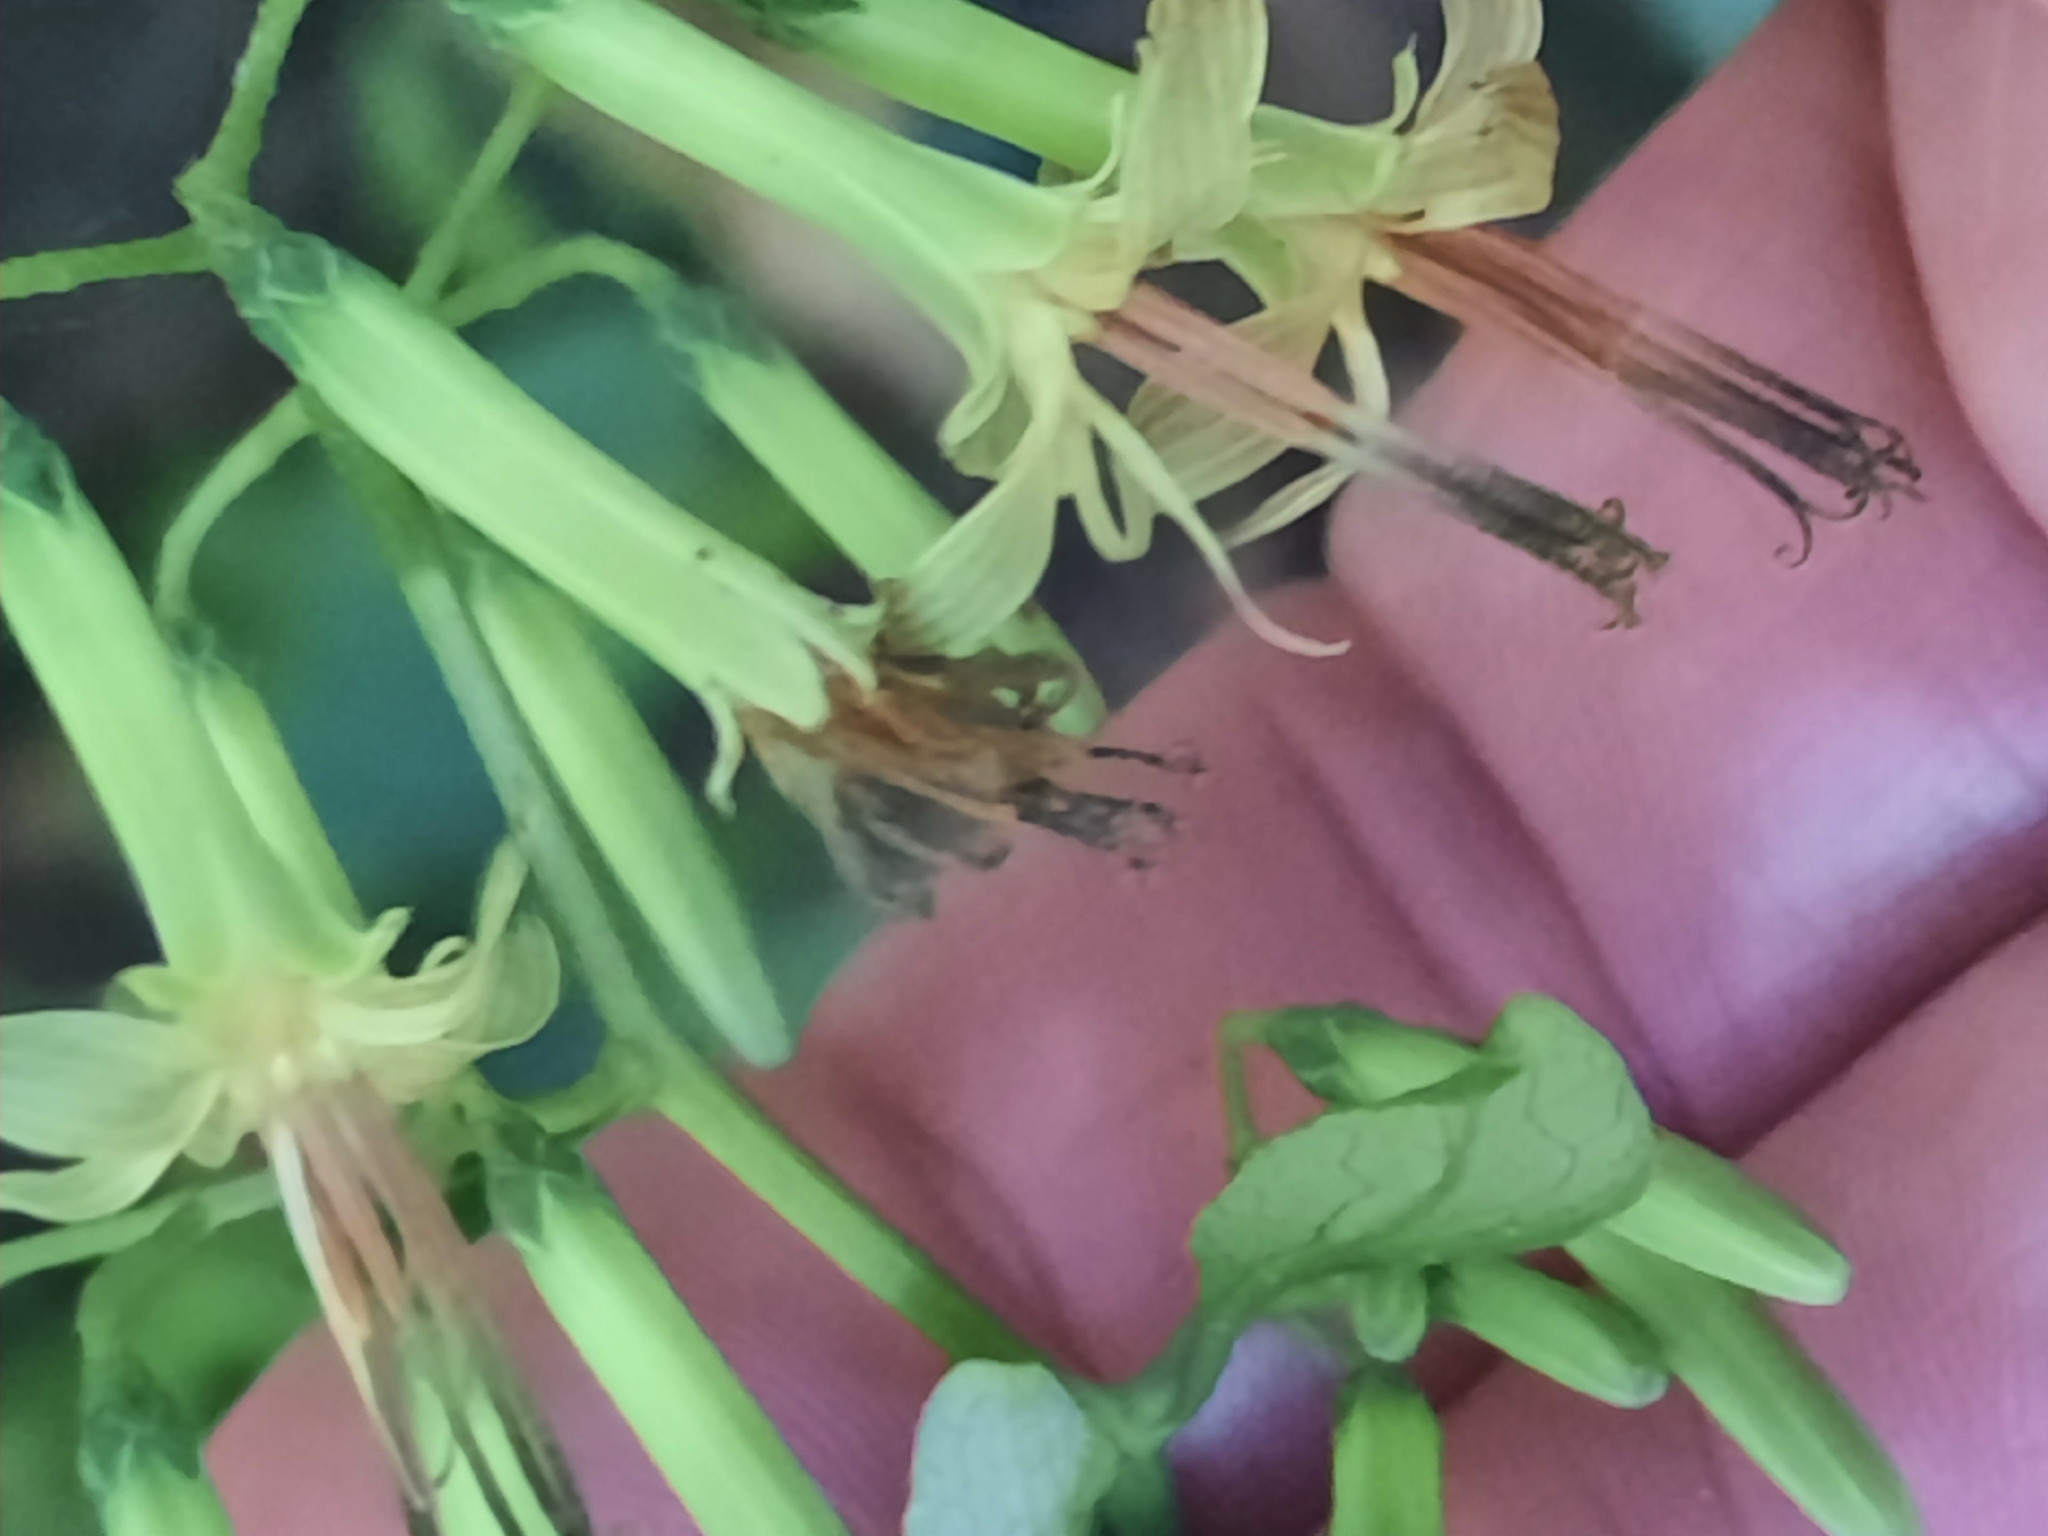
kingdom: Plantae
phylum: Tracheophyta
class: Magnoliopsida
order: Asterales
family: Asteraceae
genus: Nabalus
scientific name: Nabalus altissima
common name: Tall rattlesnakeroot
